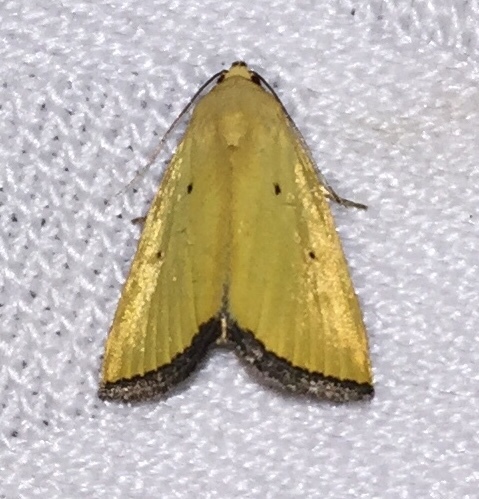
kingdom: Animalia
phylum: Arthropoda
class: Insecta
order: Lepidoptera
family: Noctuidae
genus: Marimatha
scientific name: Marimatha nigrofimbria
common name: Black-bordered lemon moth
